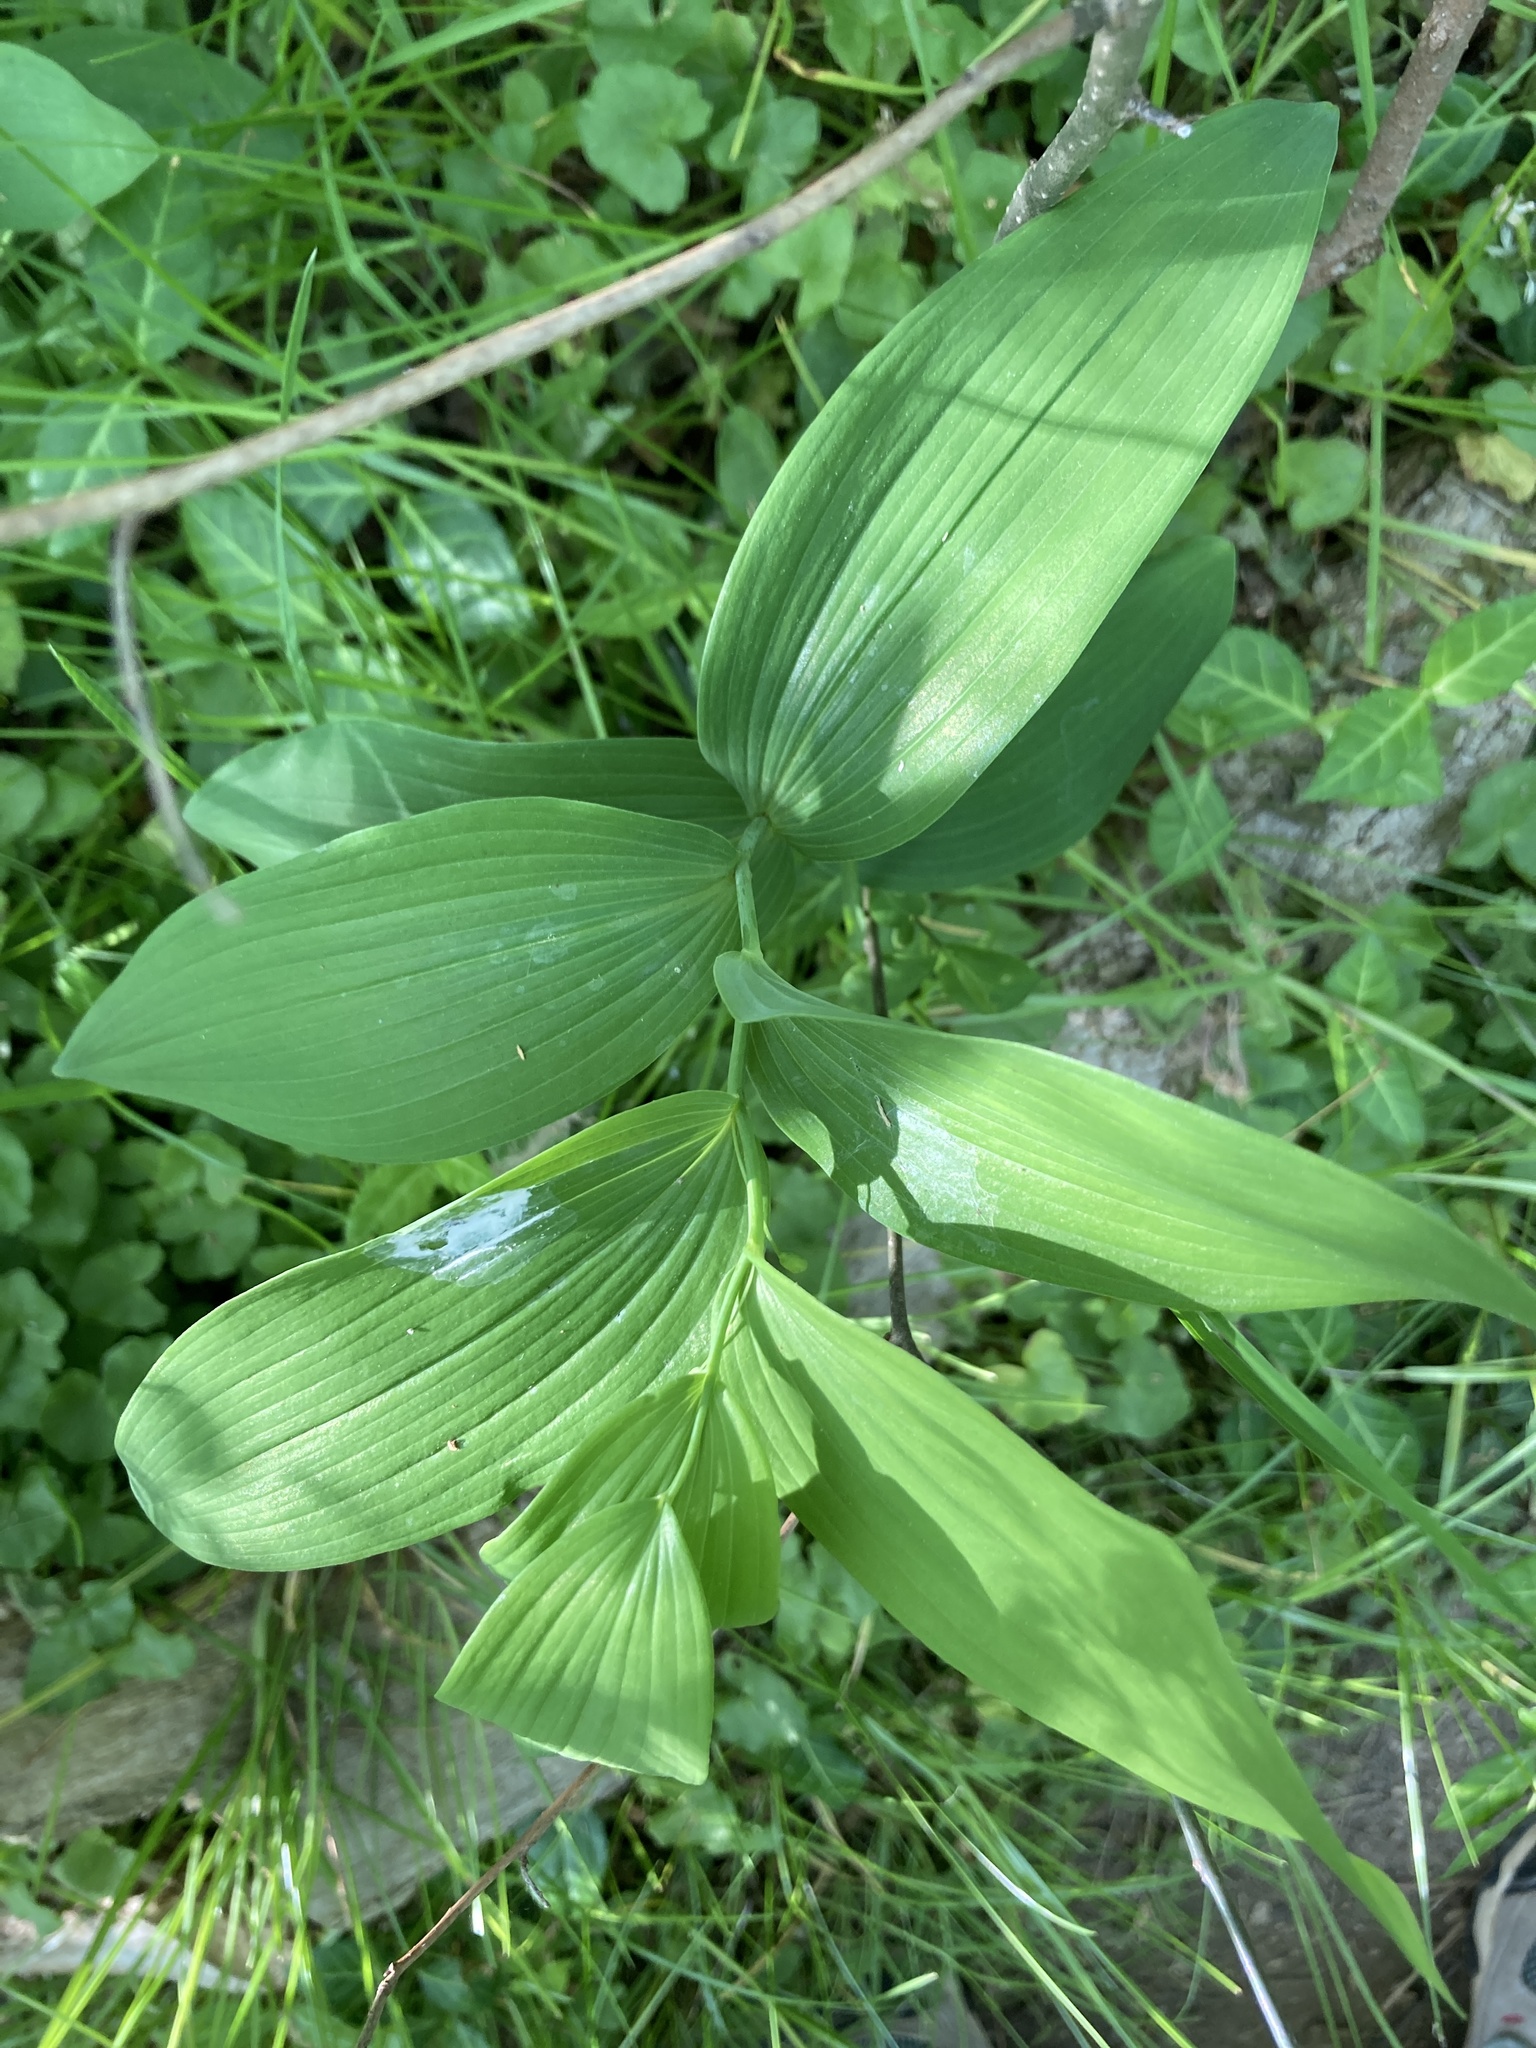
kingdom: Plantae
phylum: Tracheophyta
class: Liliopsida
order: Asparagales
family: Asparagaceae
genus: Polygonatum
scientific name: Polygonatum biflorum
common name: American solomon's-seal
